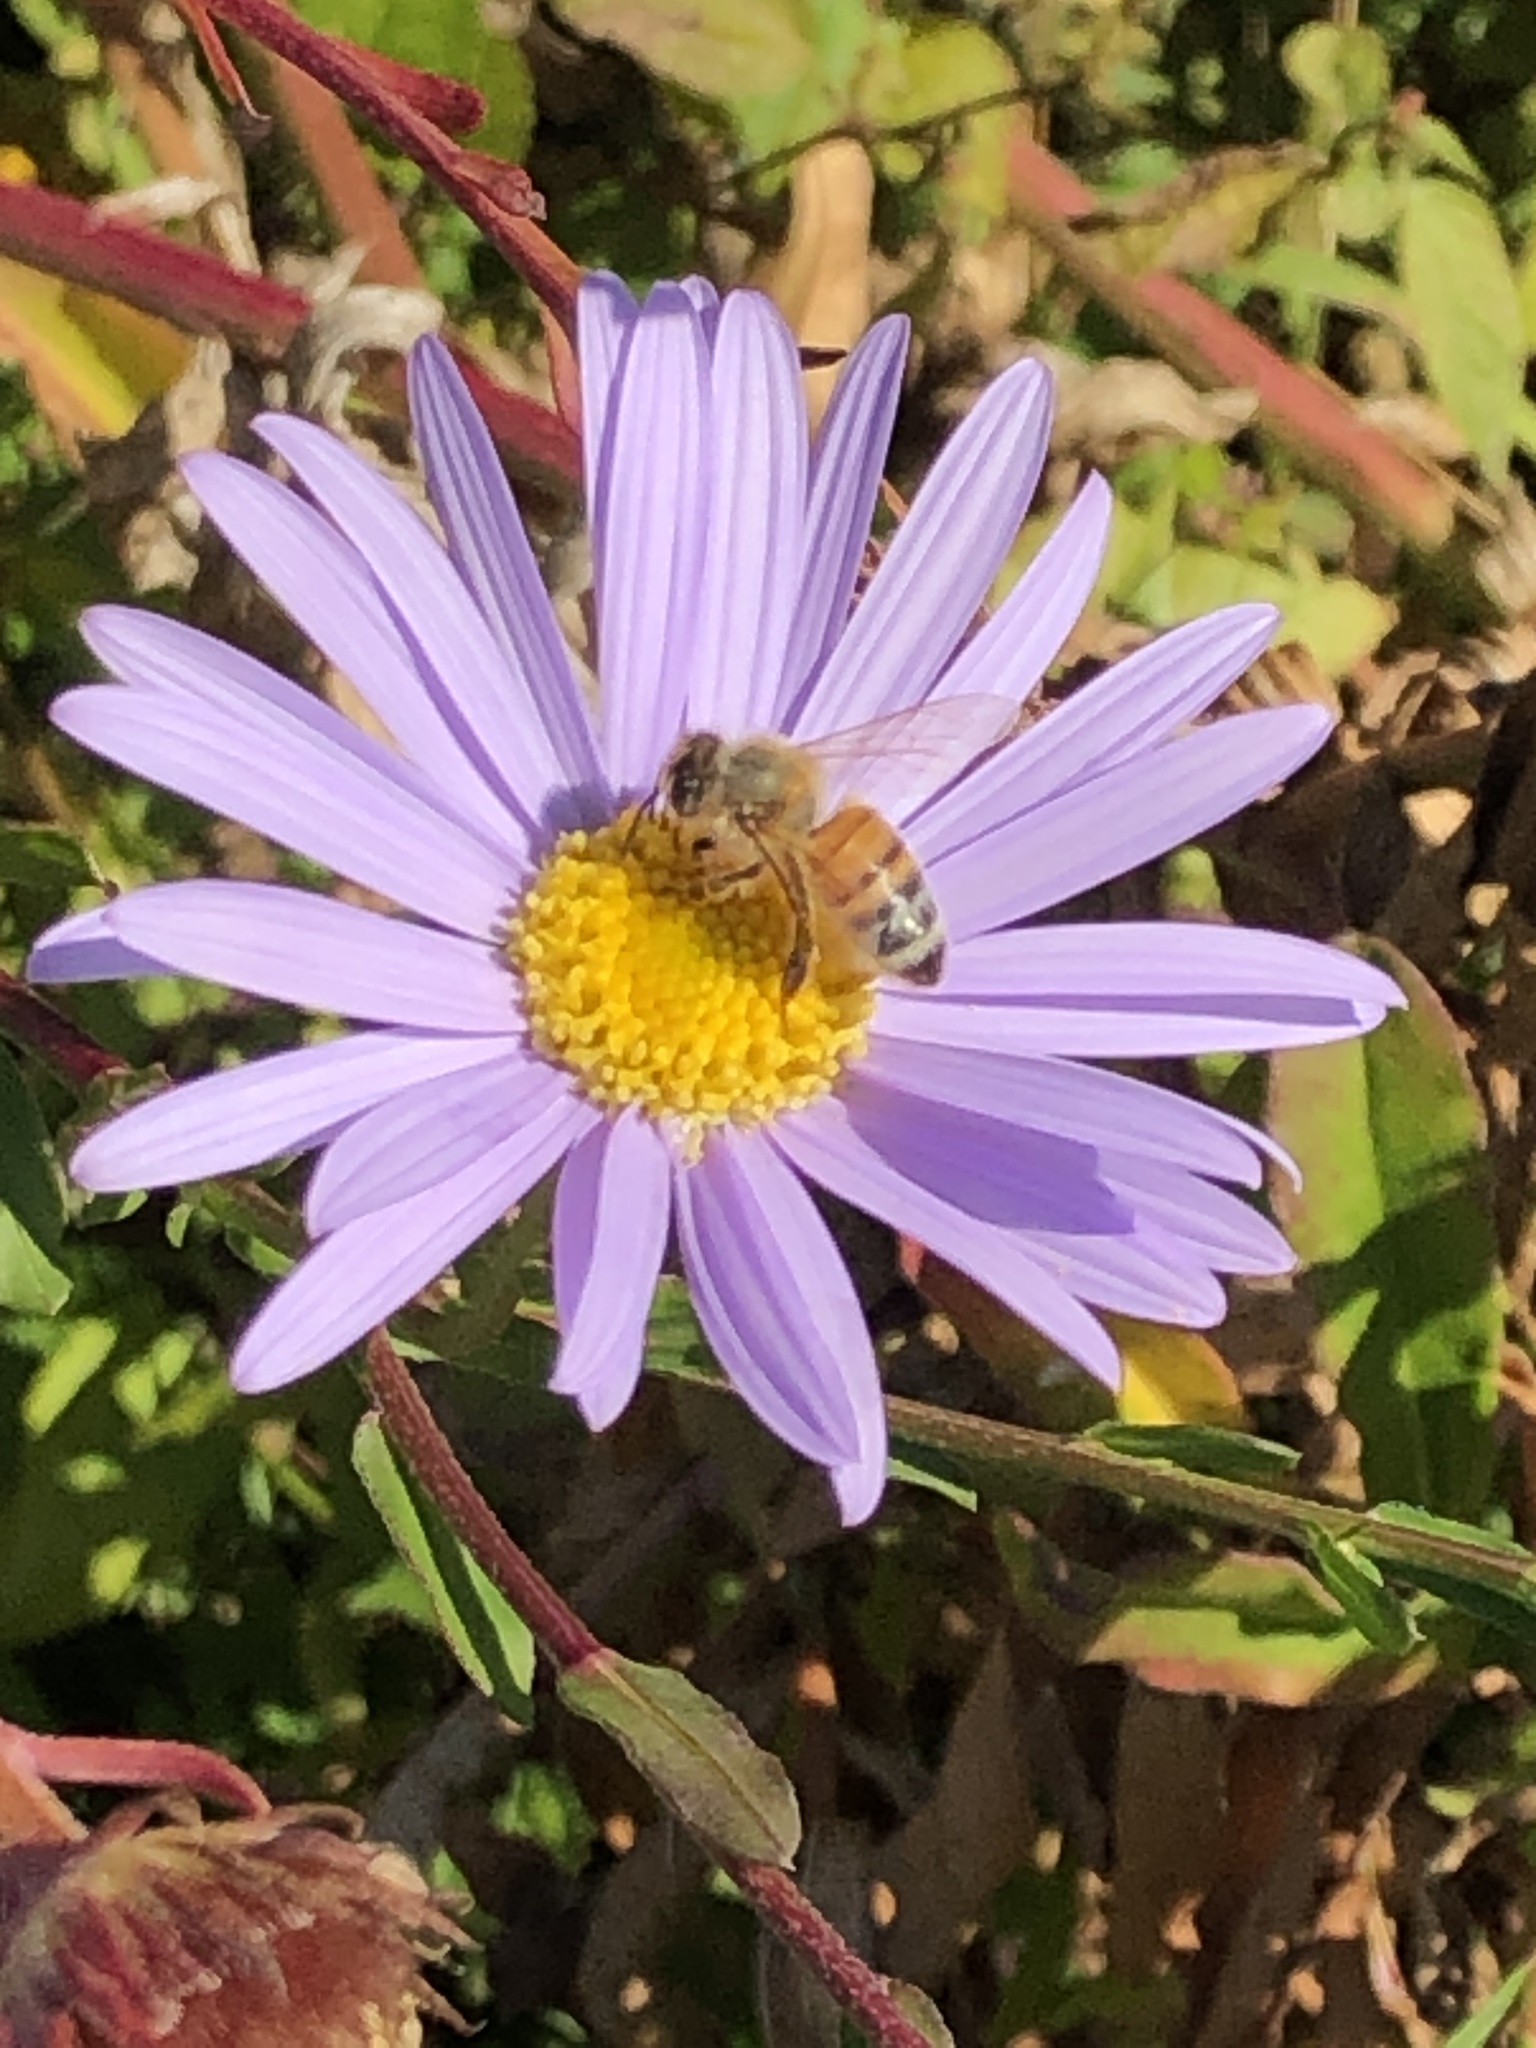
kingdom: Animalia
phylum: Arthropoda
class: Insecta
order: Hymenoptera
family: Apidae
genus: Apis
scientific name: Apis mellifera
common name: Honey bee
